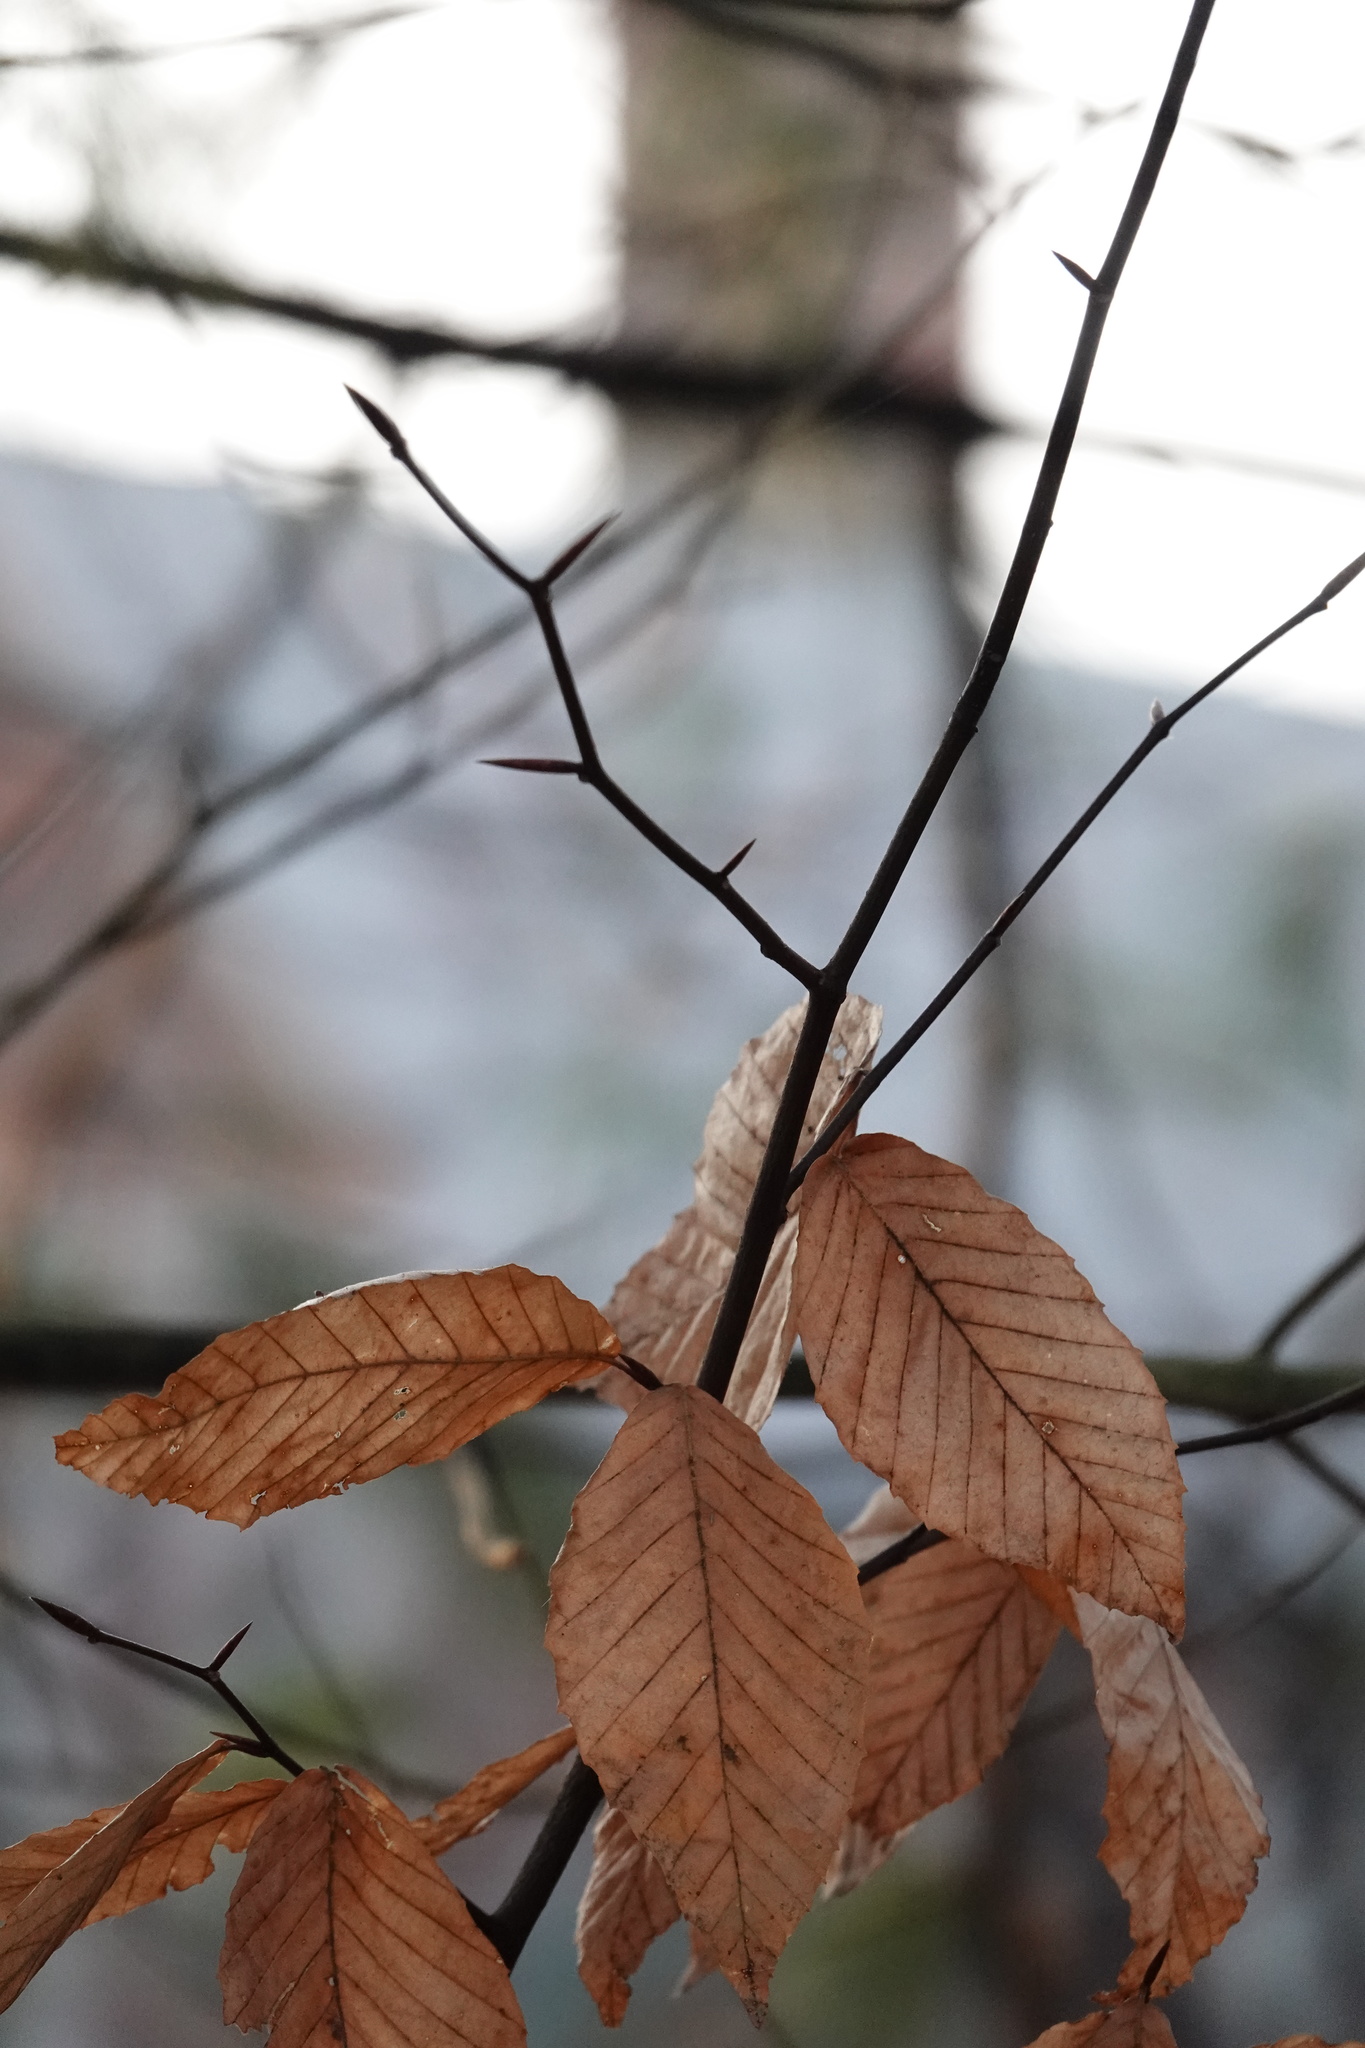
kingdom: Plantae
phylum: Tracheophyta
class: Magnoliopsida
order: Fagales
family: Fagaceae
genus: Fagus
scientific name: Fagus grandifolia
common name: American beech
